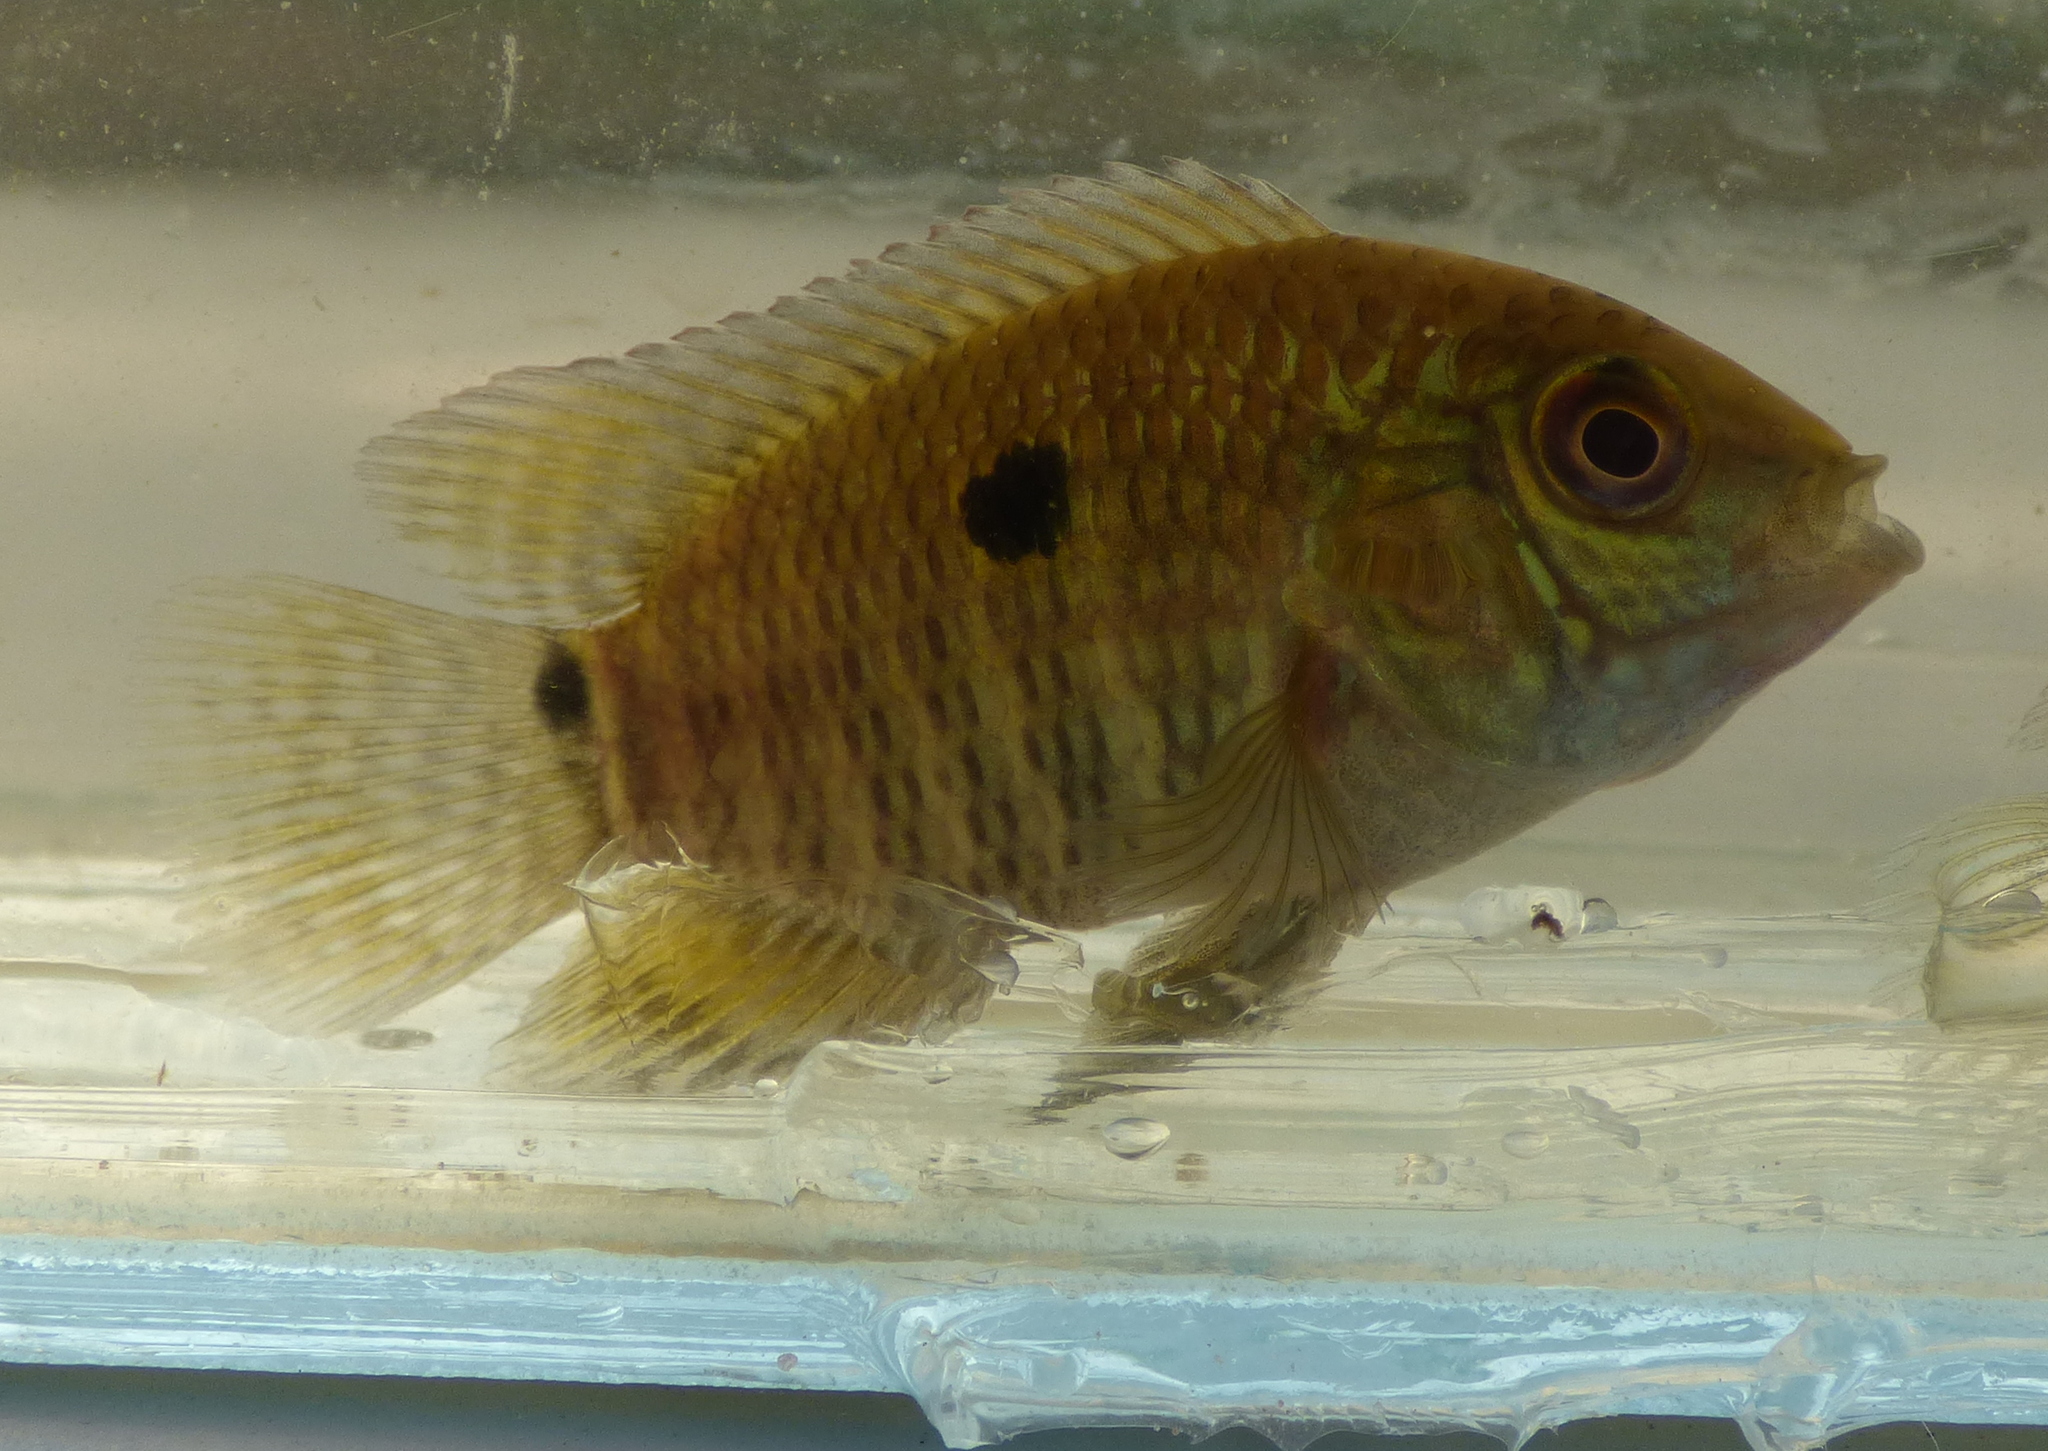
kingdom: Animalia
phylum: Chordata
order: Perciformes
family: Cichlidae
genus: Cichlasoma
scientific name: Cichlasoma dimerus
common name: Chanchita
